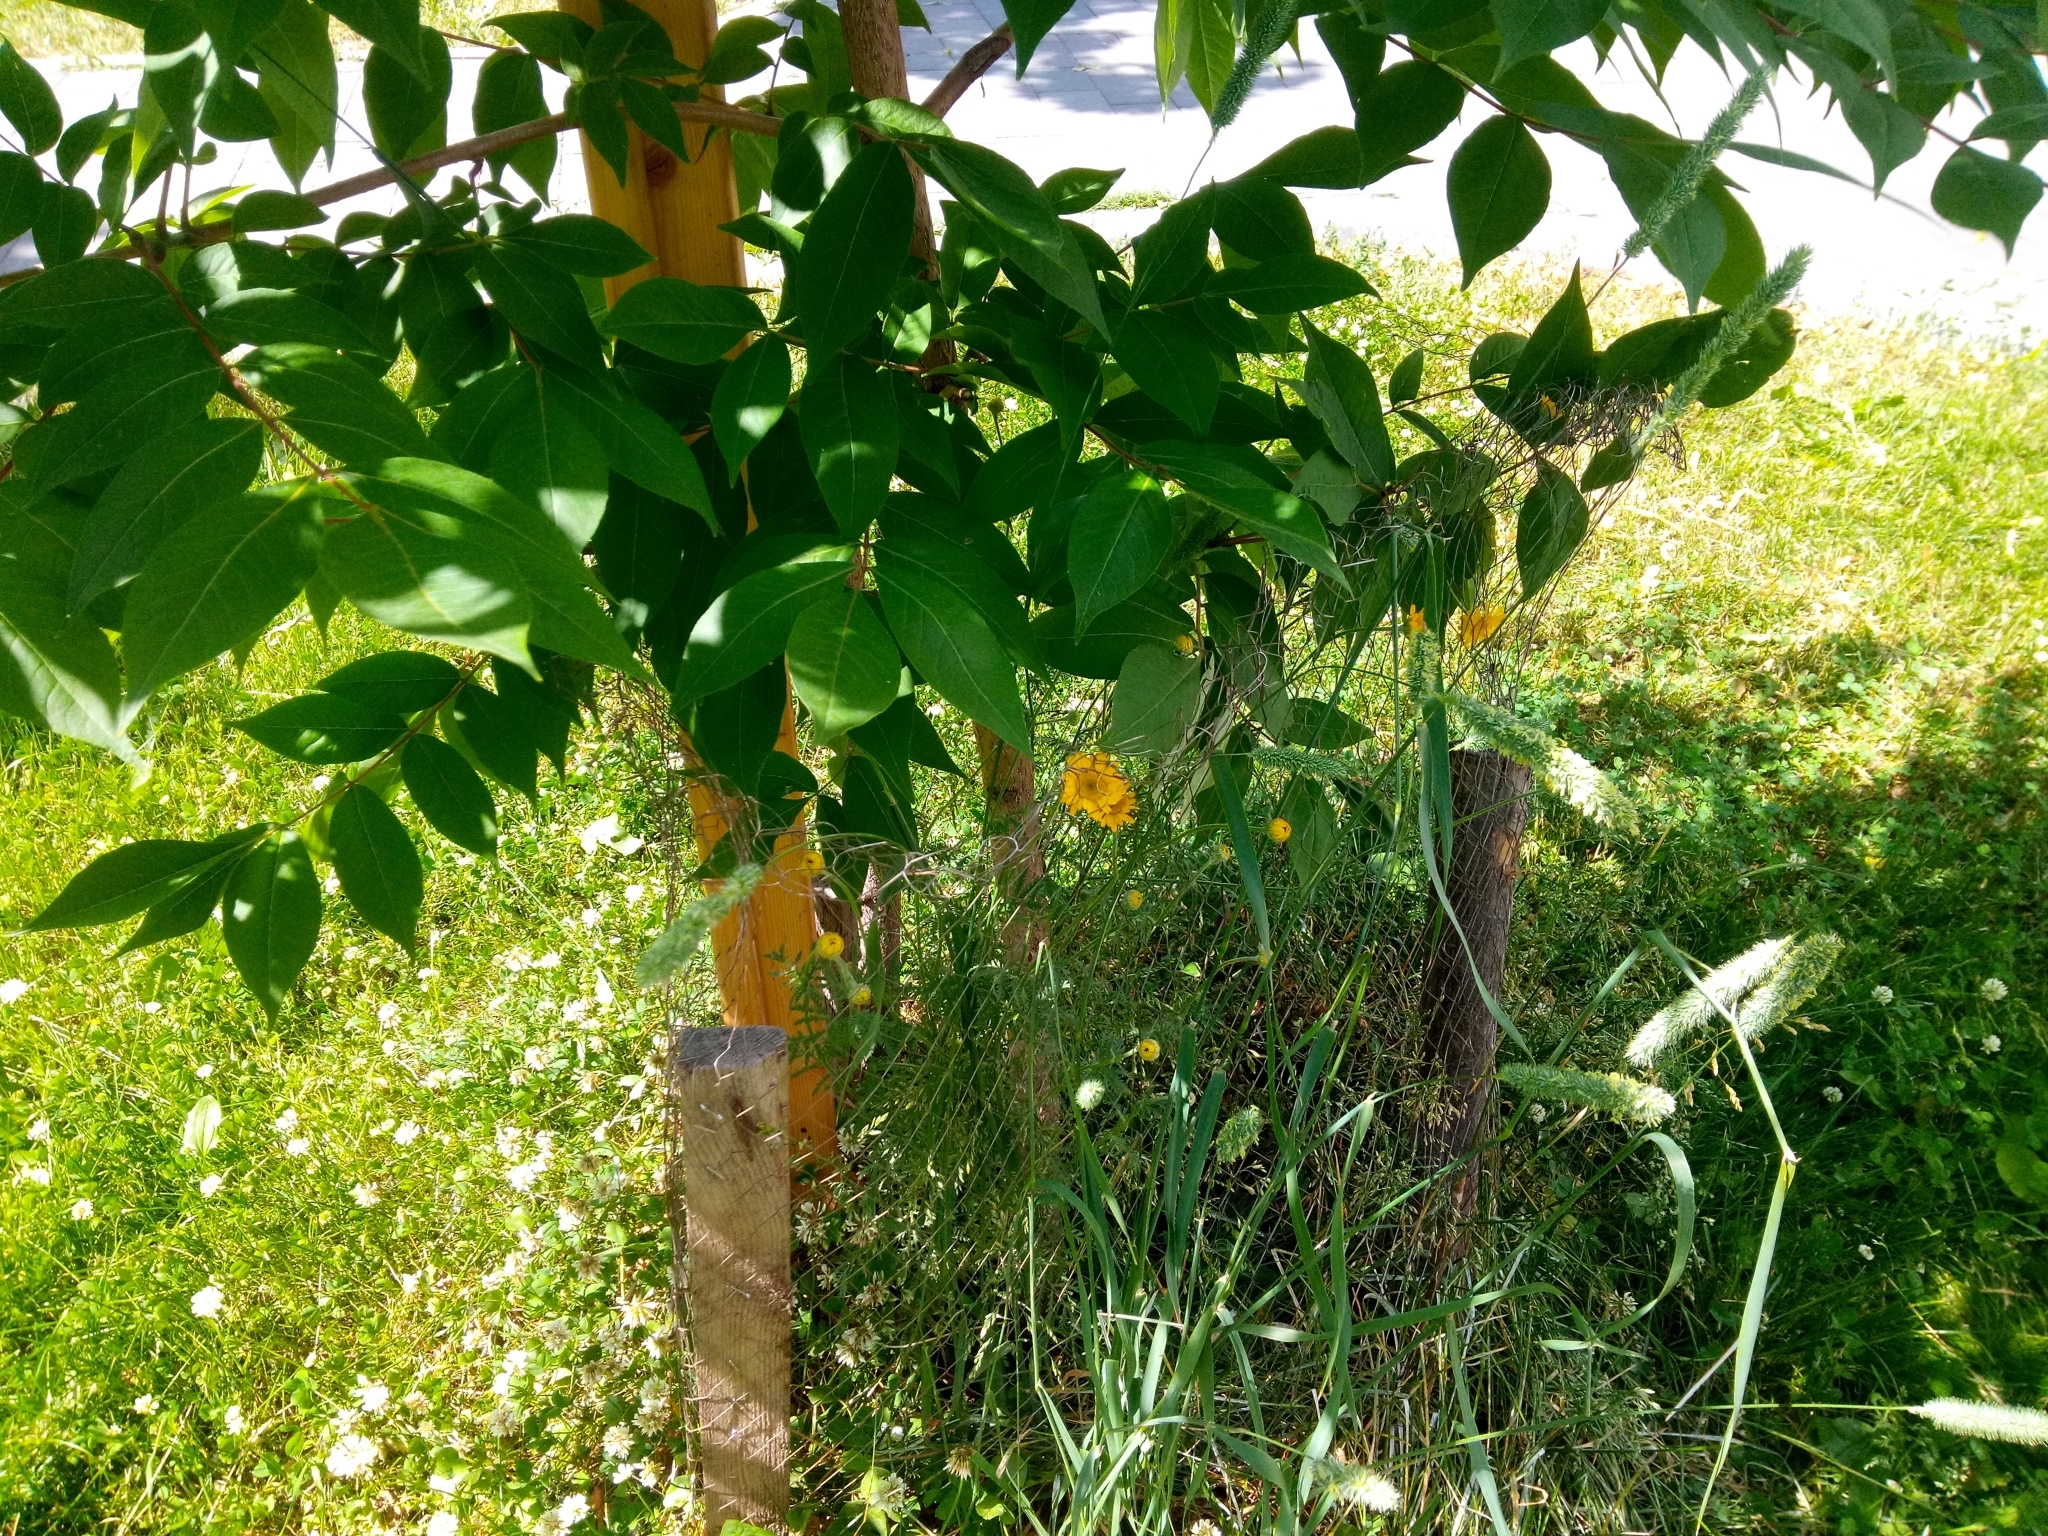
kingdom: Plantae
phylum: Tracheophyta
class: Magnoliopsida
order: Asterales
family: Asteraceae
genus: Cota
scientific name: Cota tinctoria
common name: Golden chamomile
